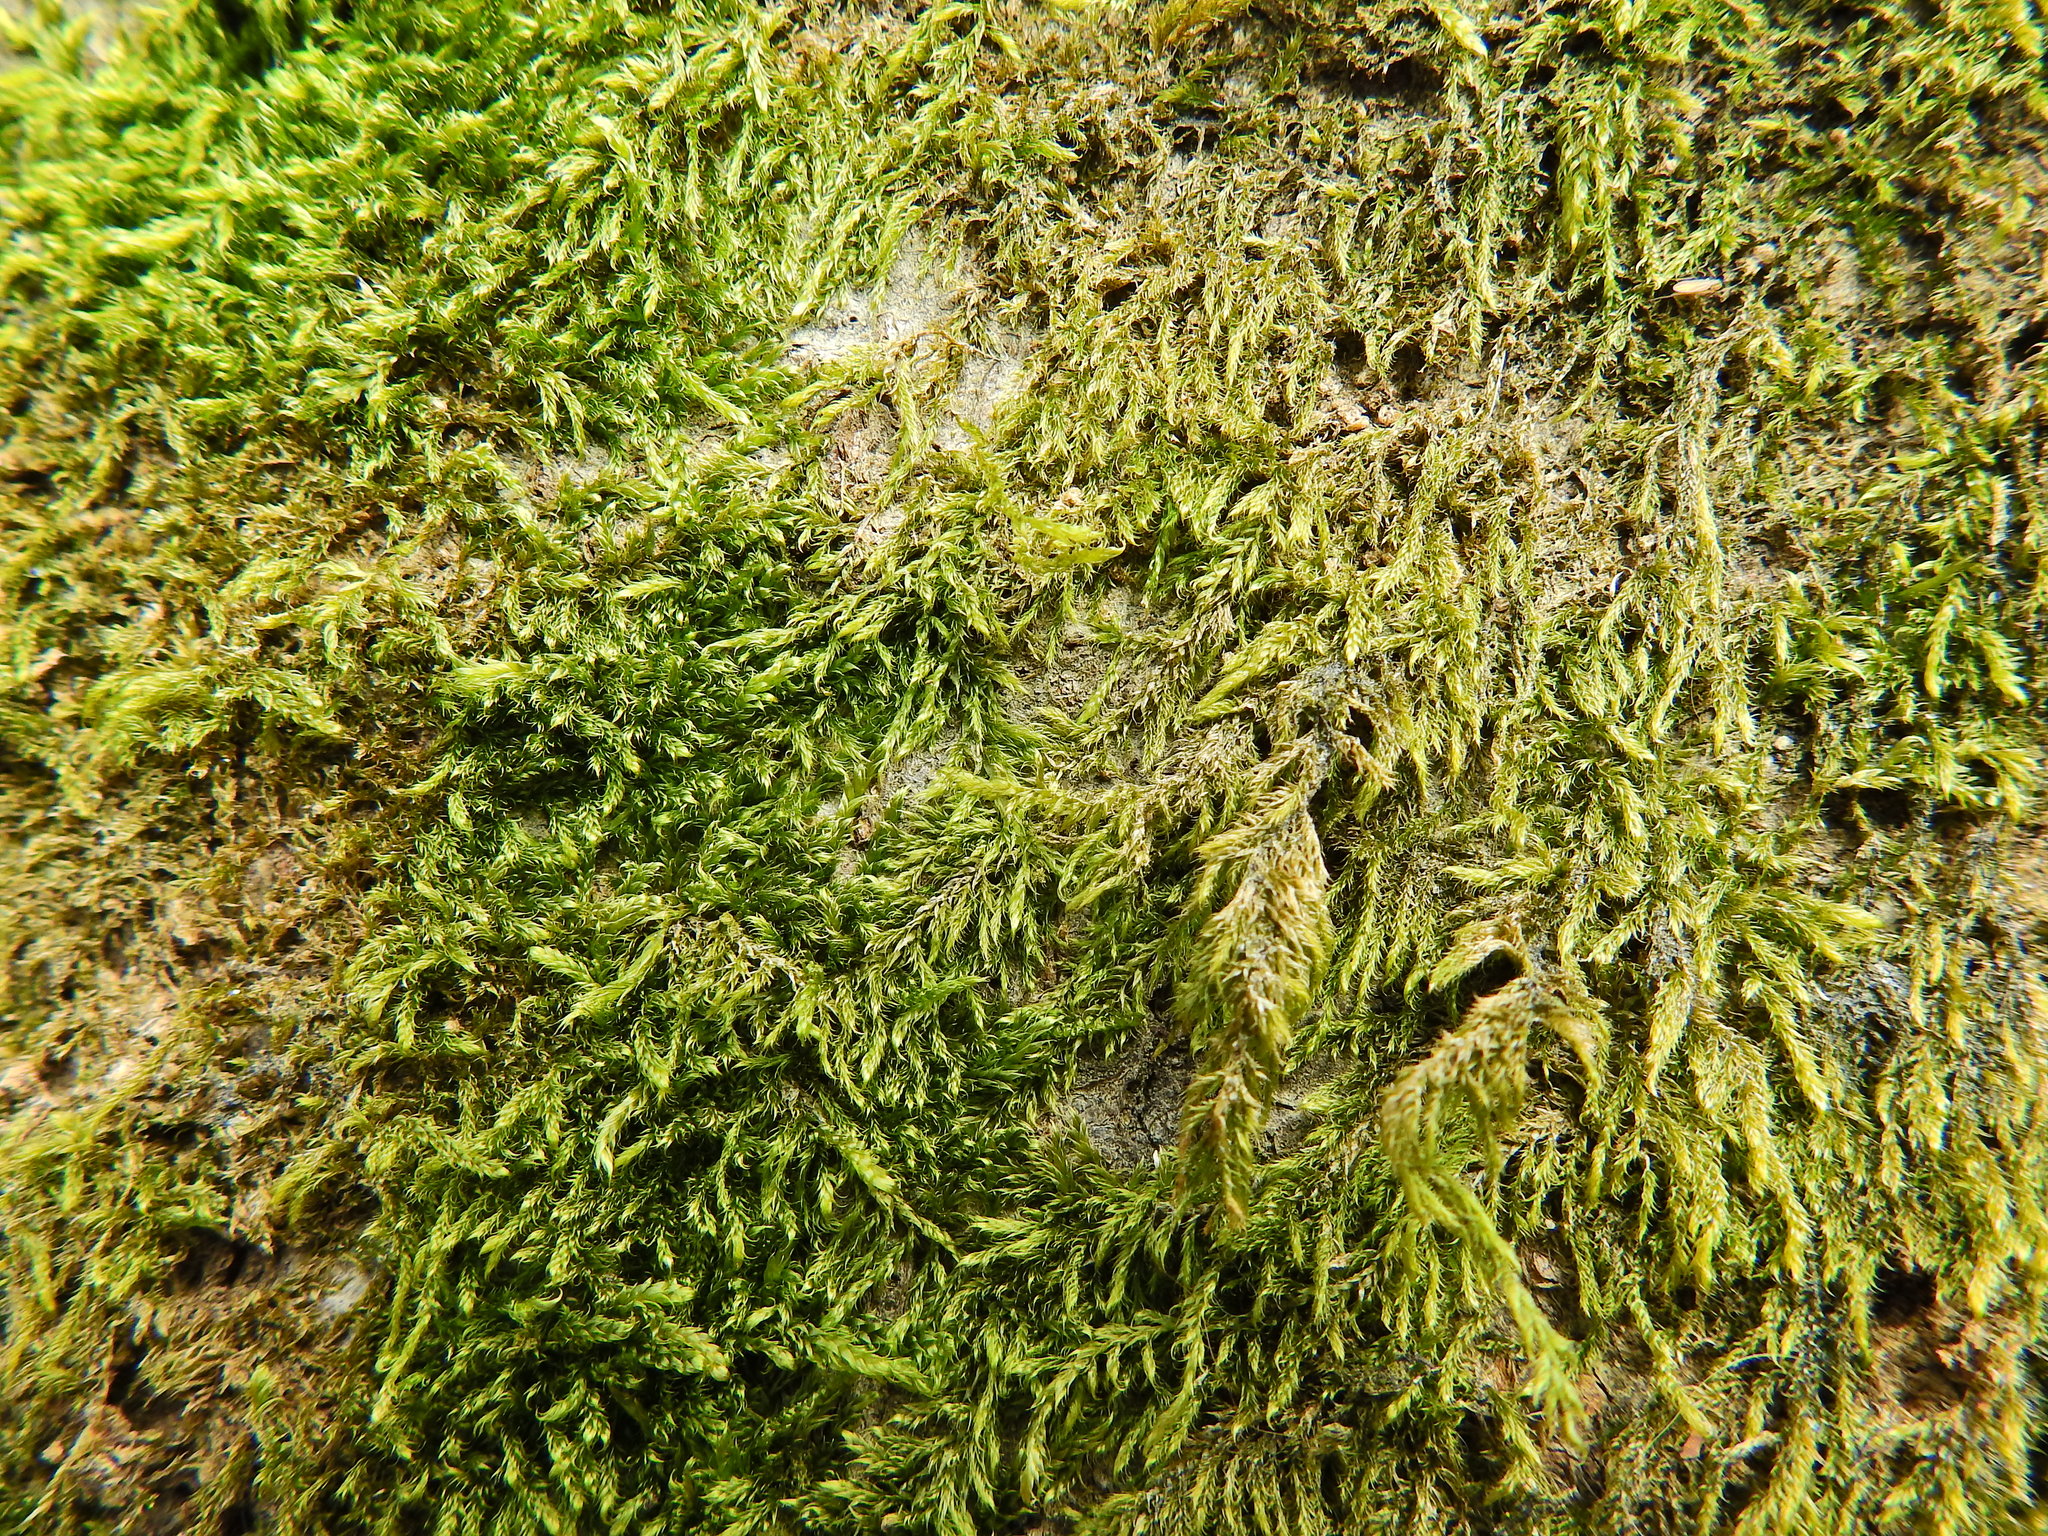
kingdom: Plantae
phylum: Bryophyta
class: Bryopsida
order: Hypnales
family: Hypnaceae
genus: Hypnum
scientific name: Hypnum cupressiforme
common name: Cypress-leaved plait-moss
